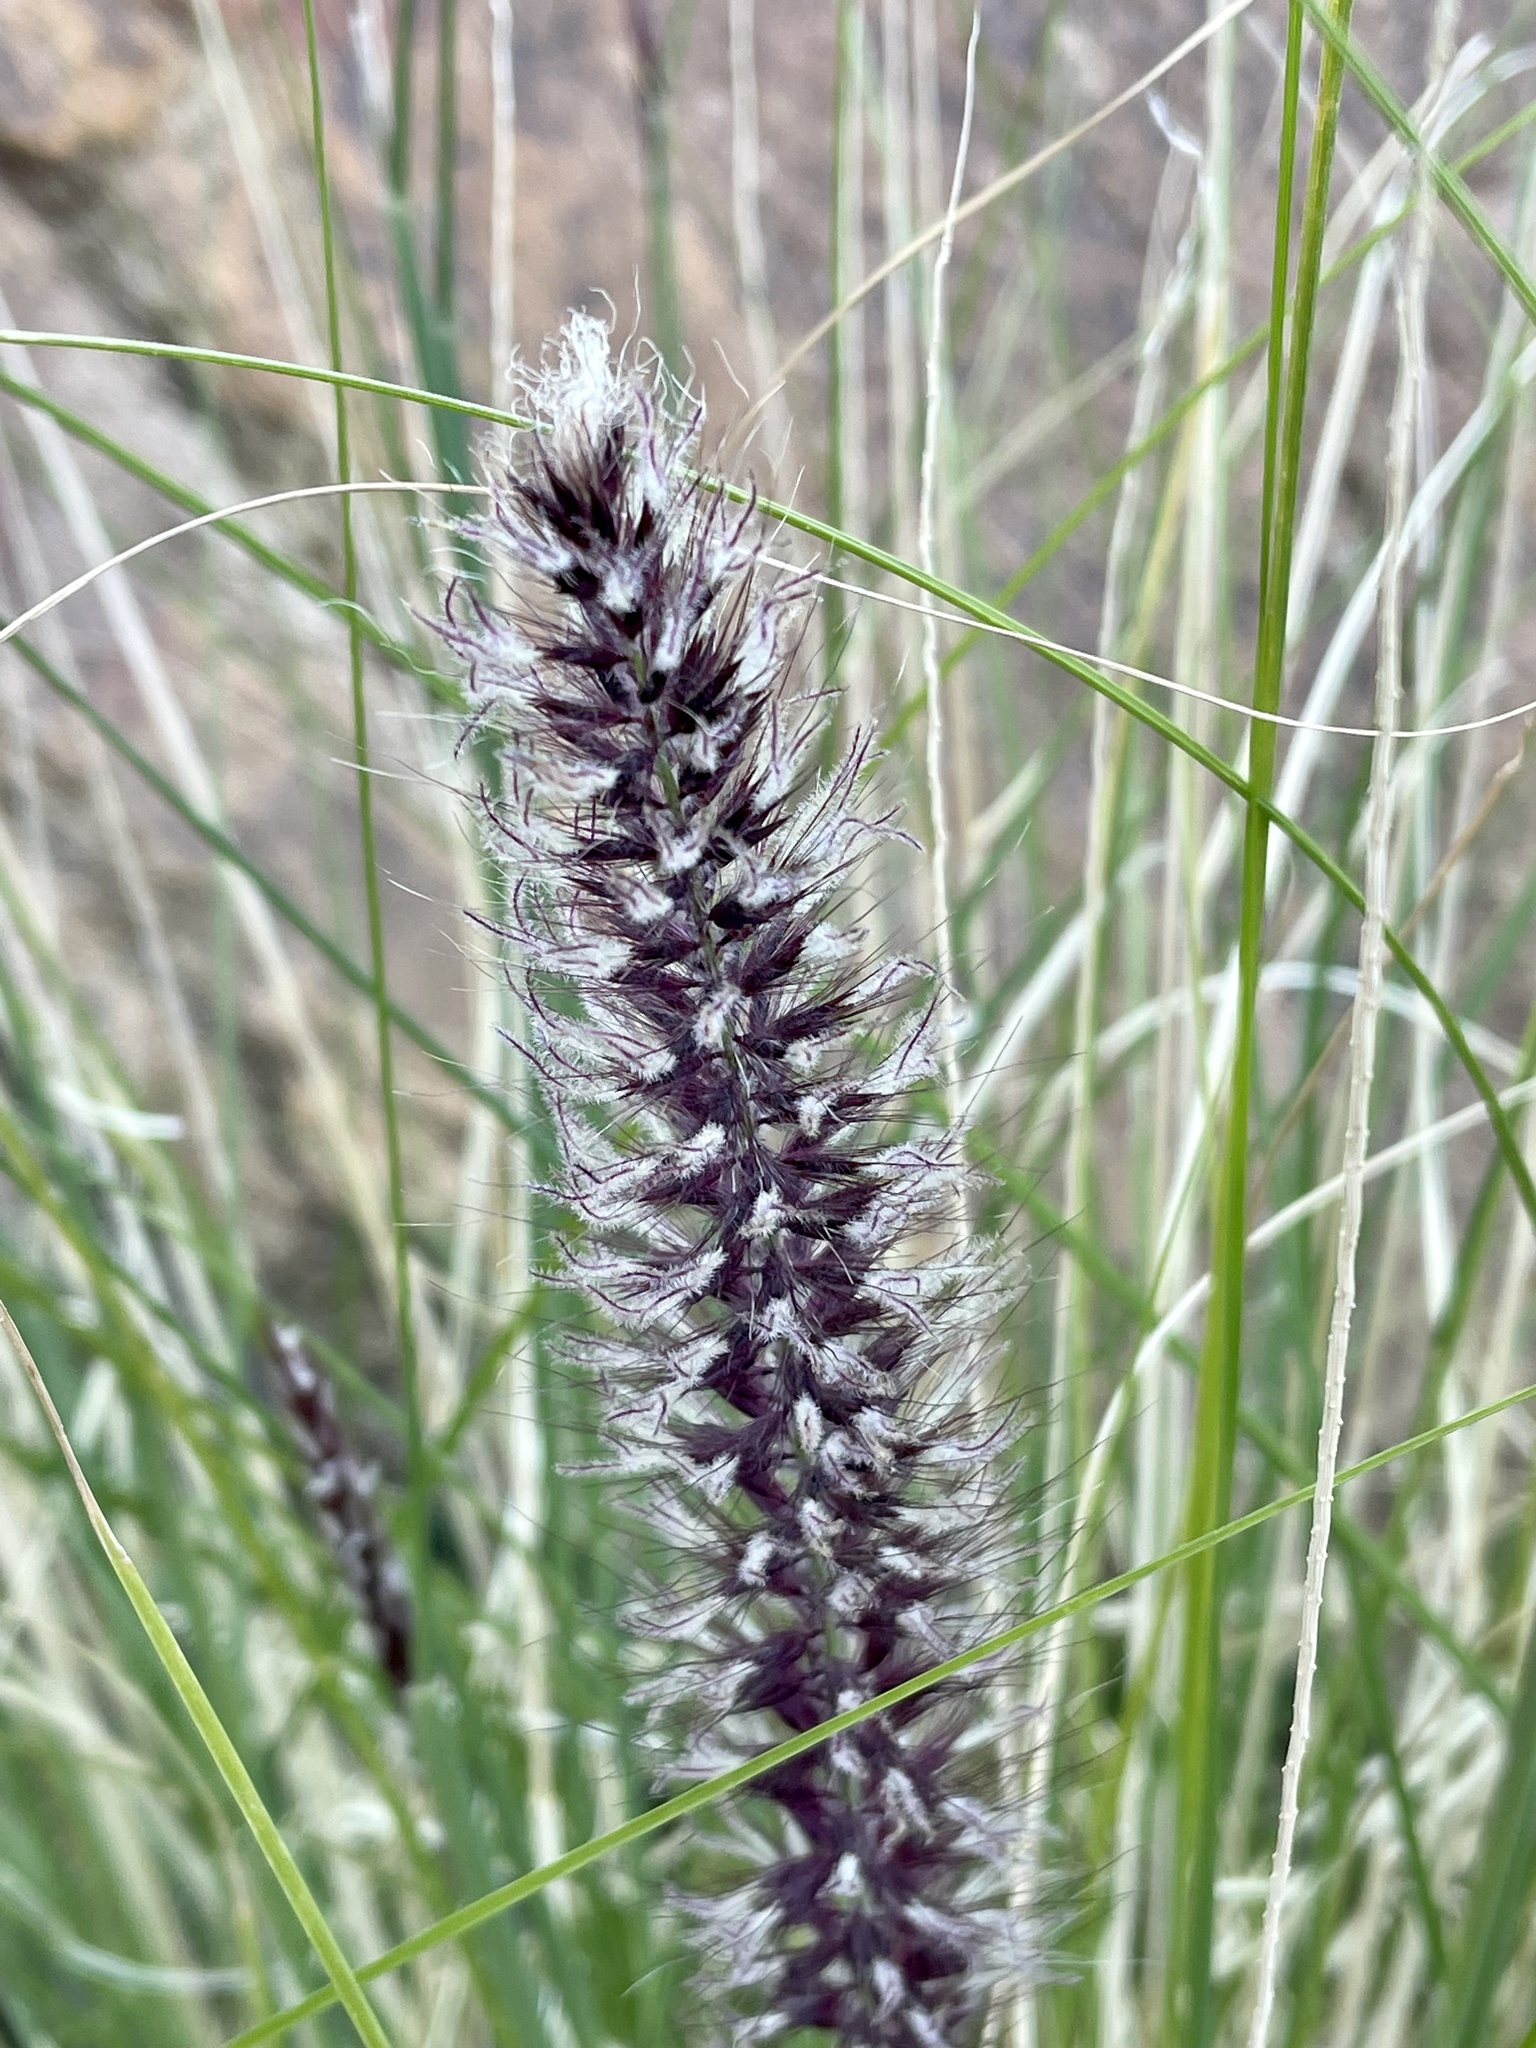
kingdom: Plantae
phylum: Tracheophyta
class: Liliopsida
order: Poales
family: Poaceae
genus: Cenchrus
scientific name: Cenchrus setaceus
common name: Crimson fountaingrass
